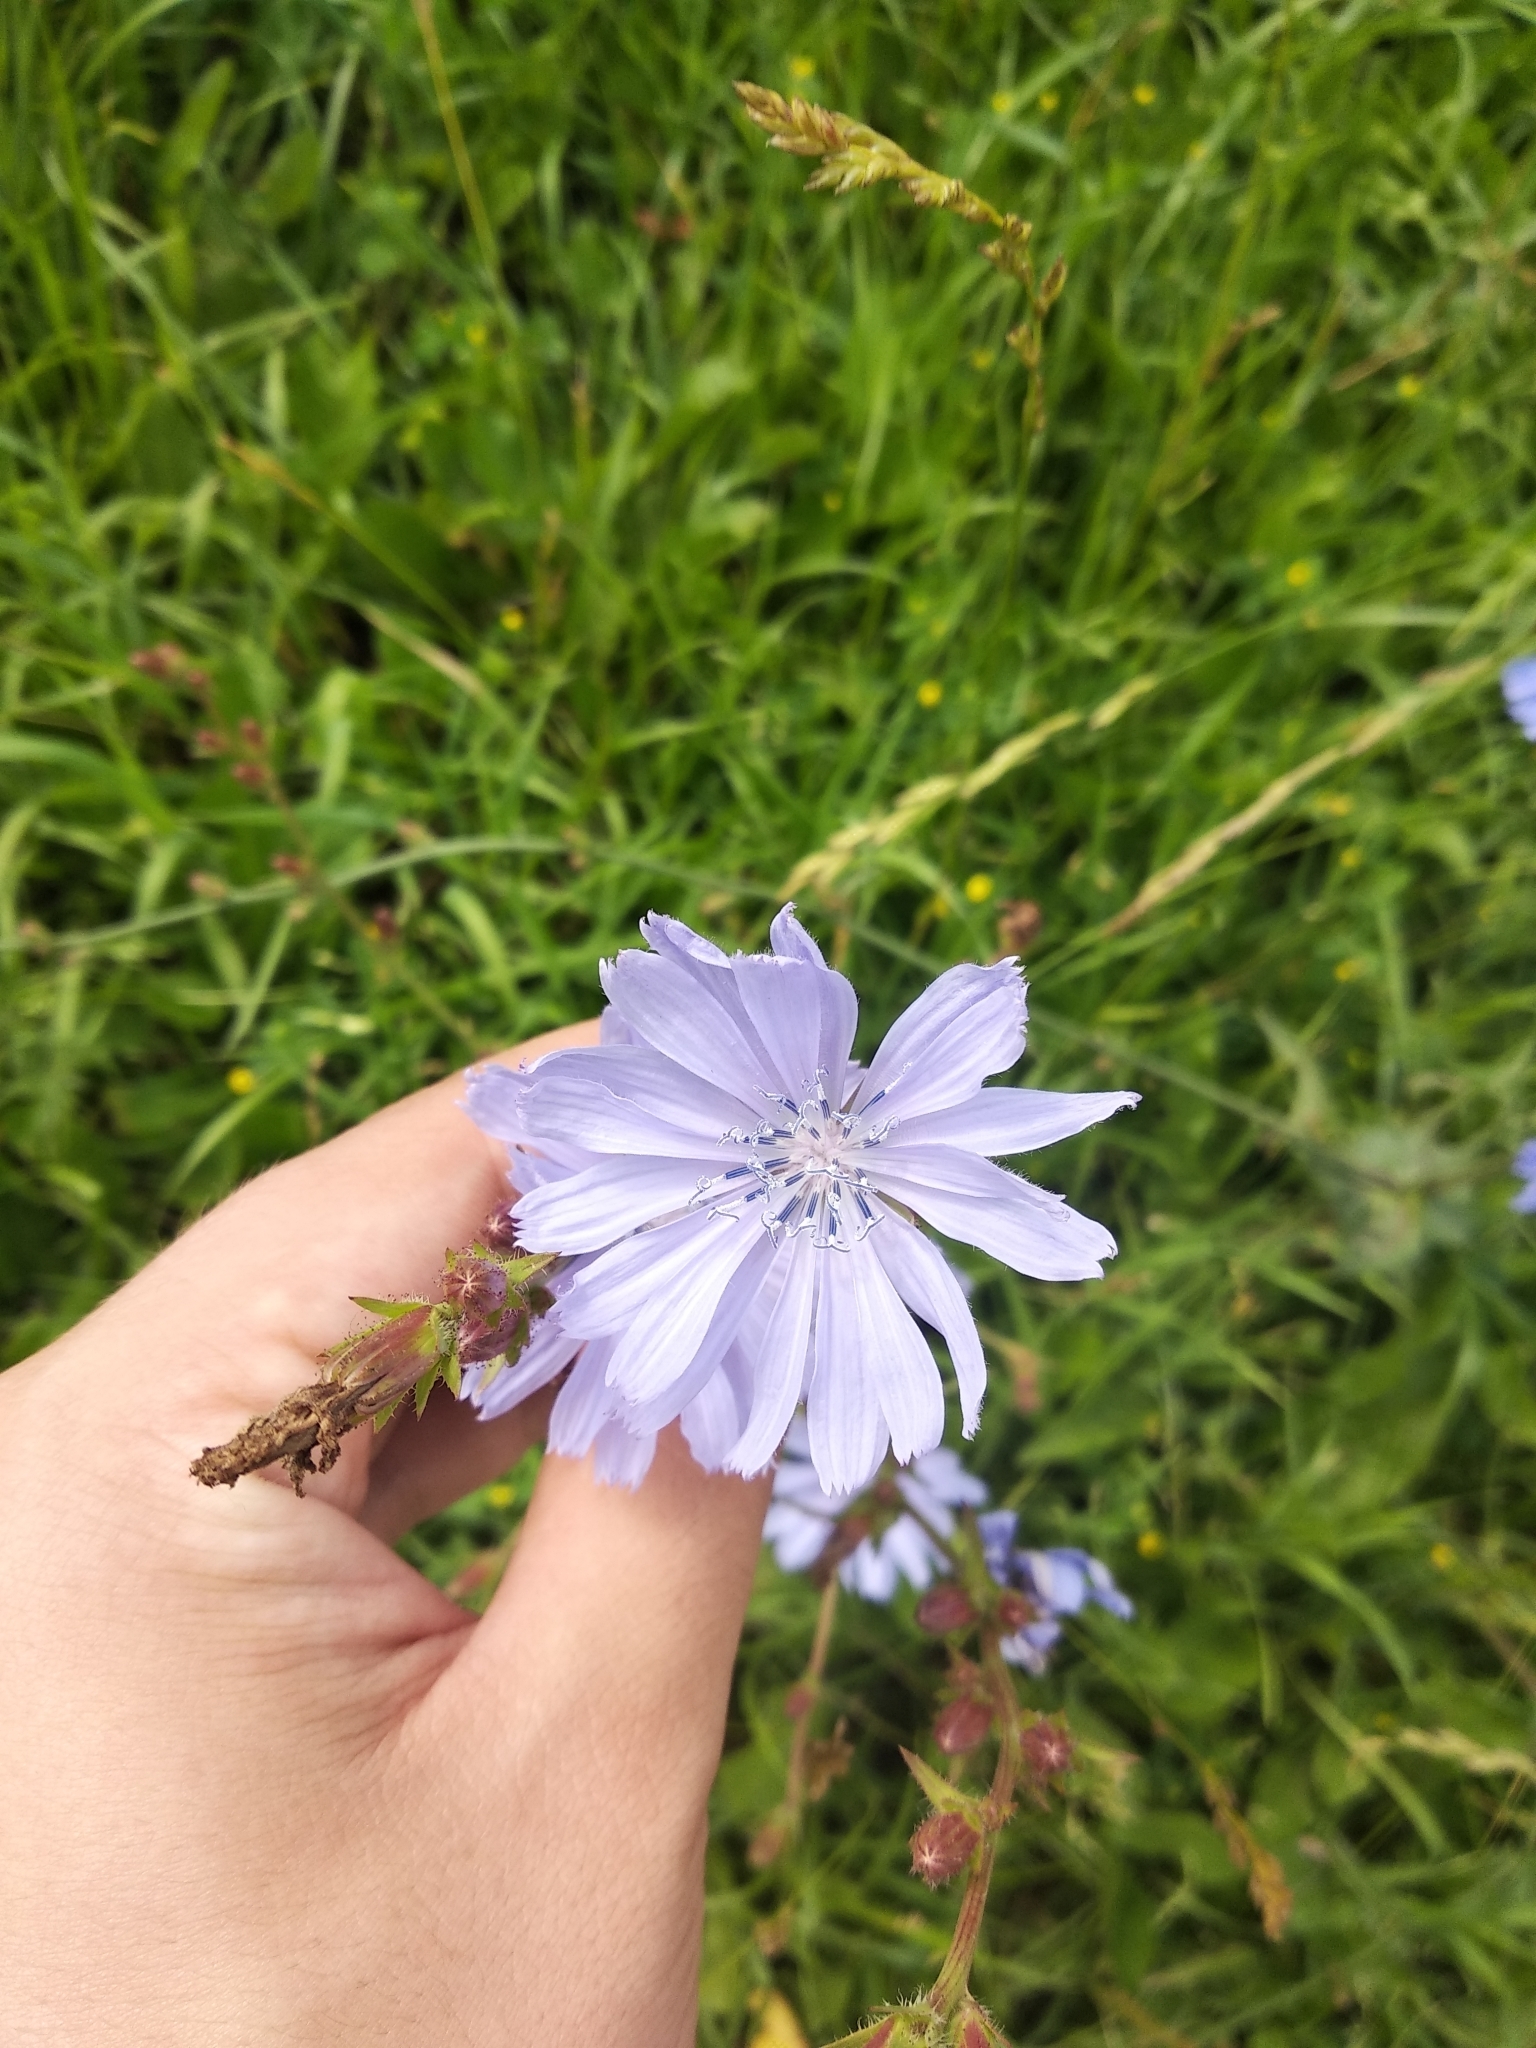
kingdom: Plantae
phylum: Tracheophyta
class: Magnoliopsida
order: Asterales
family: Asteraceae
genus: Cichorium
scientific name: Cichorium intybus
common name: Chicory
